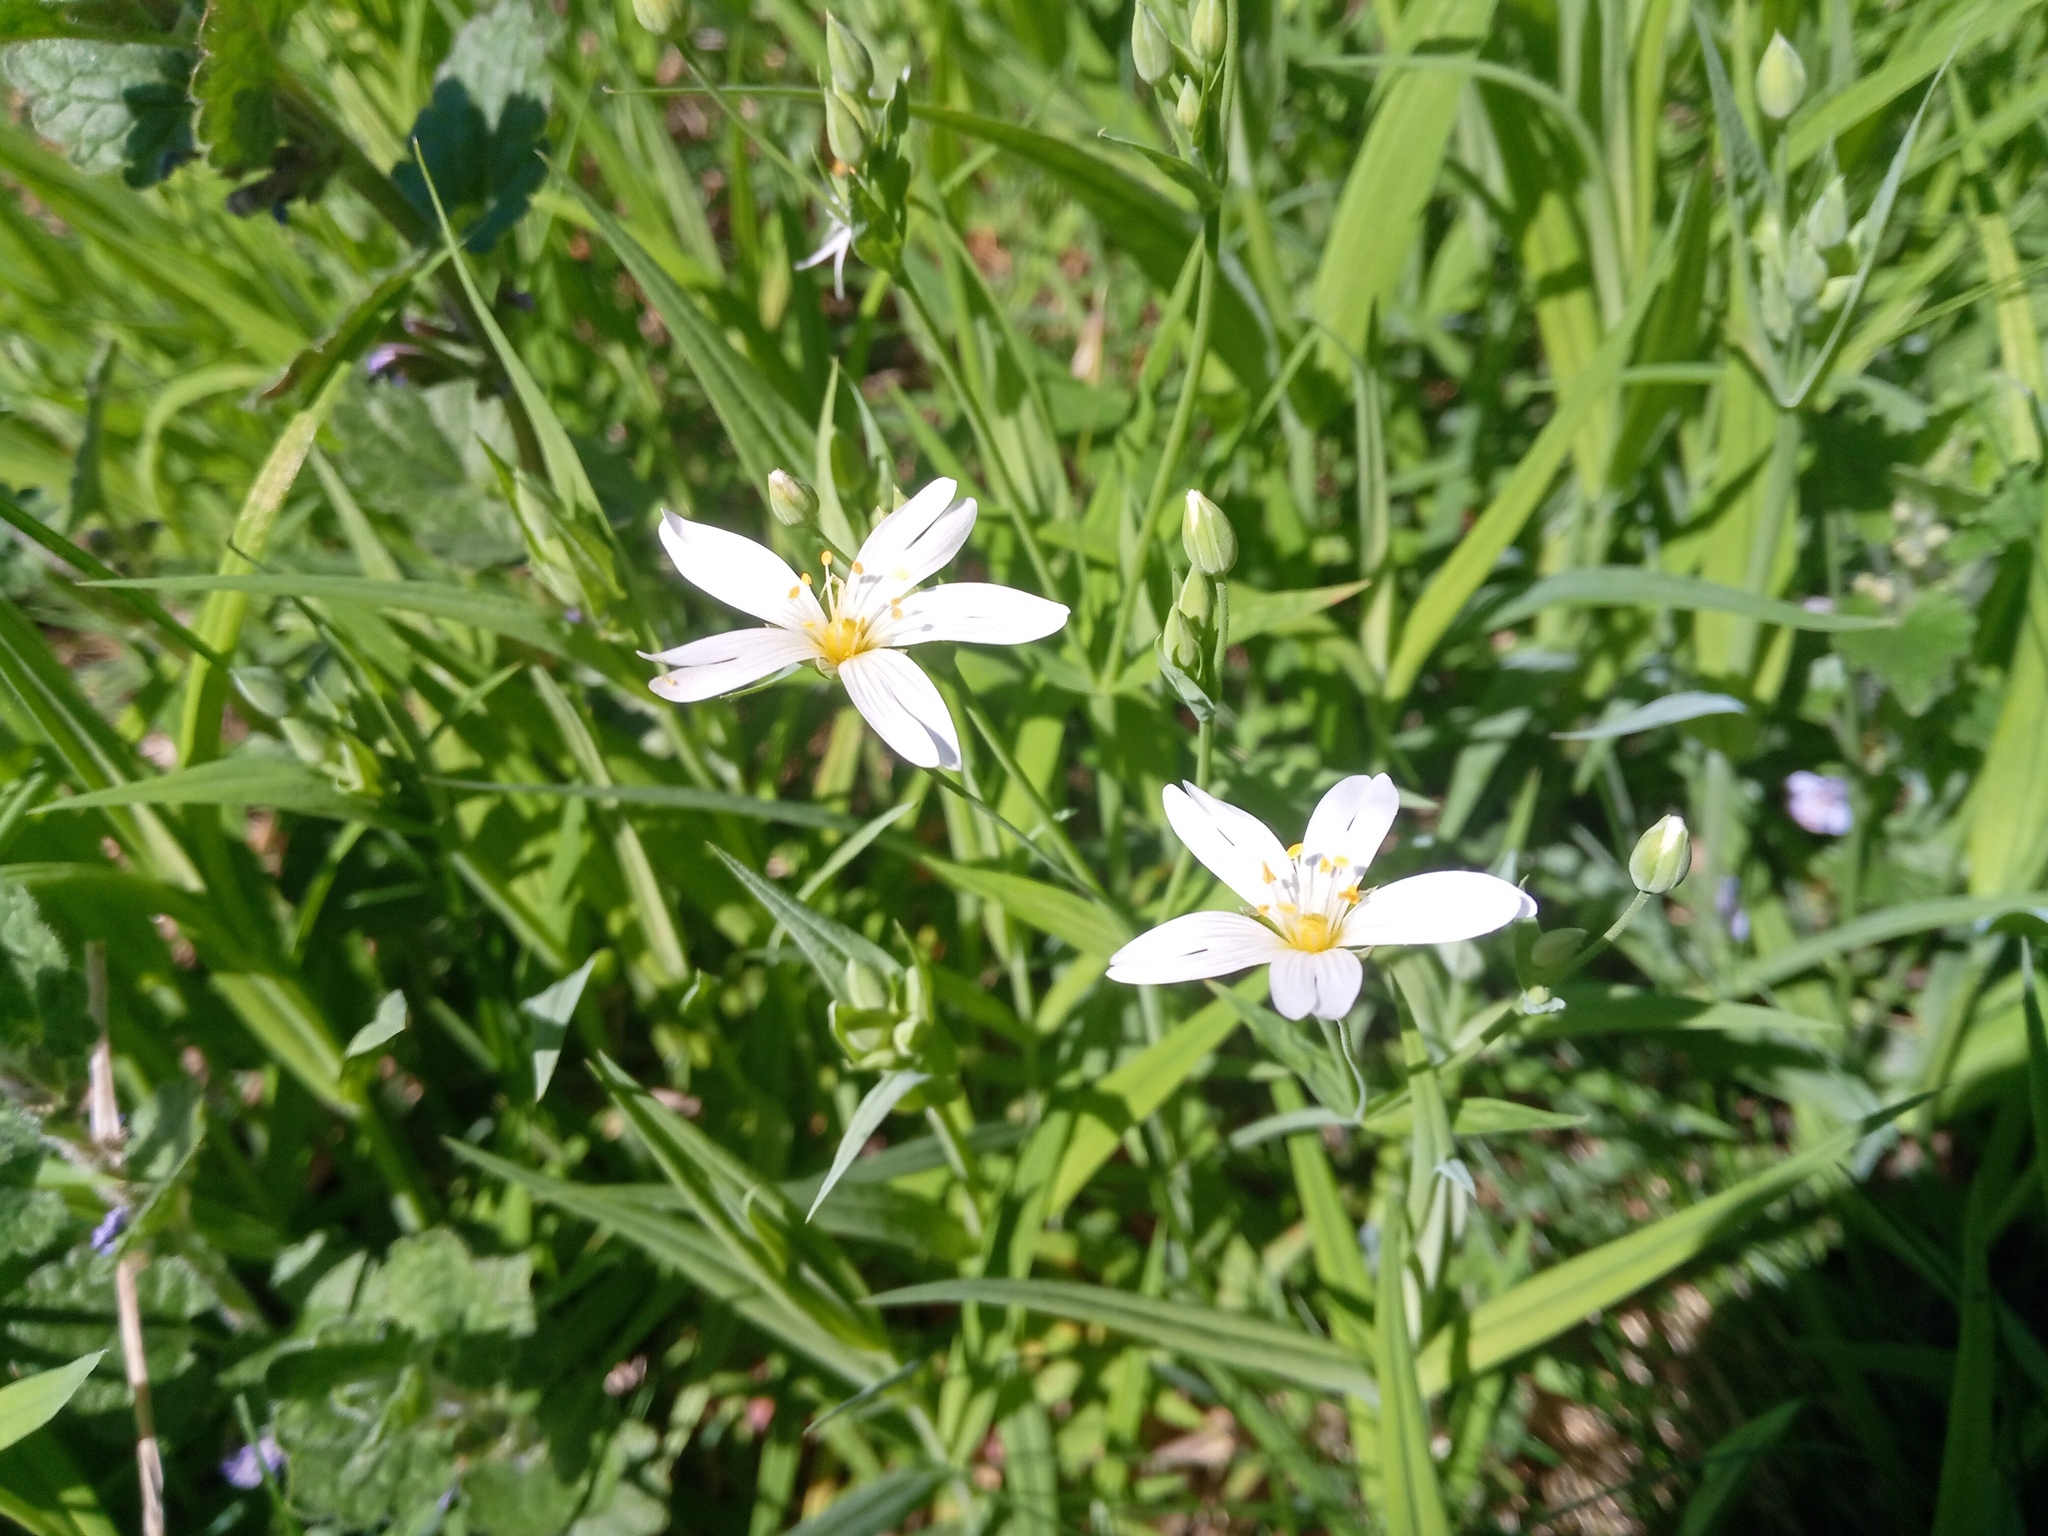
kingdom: Plantae
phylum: Tracheophyta
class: Magnoliopsida
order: Caryophyllales
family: Caryophyllaceae
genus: Rabelera
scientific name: Rabelera holostea
